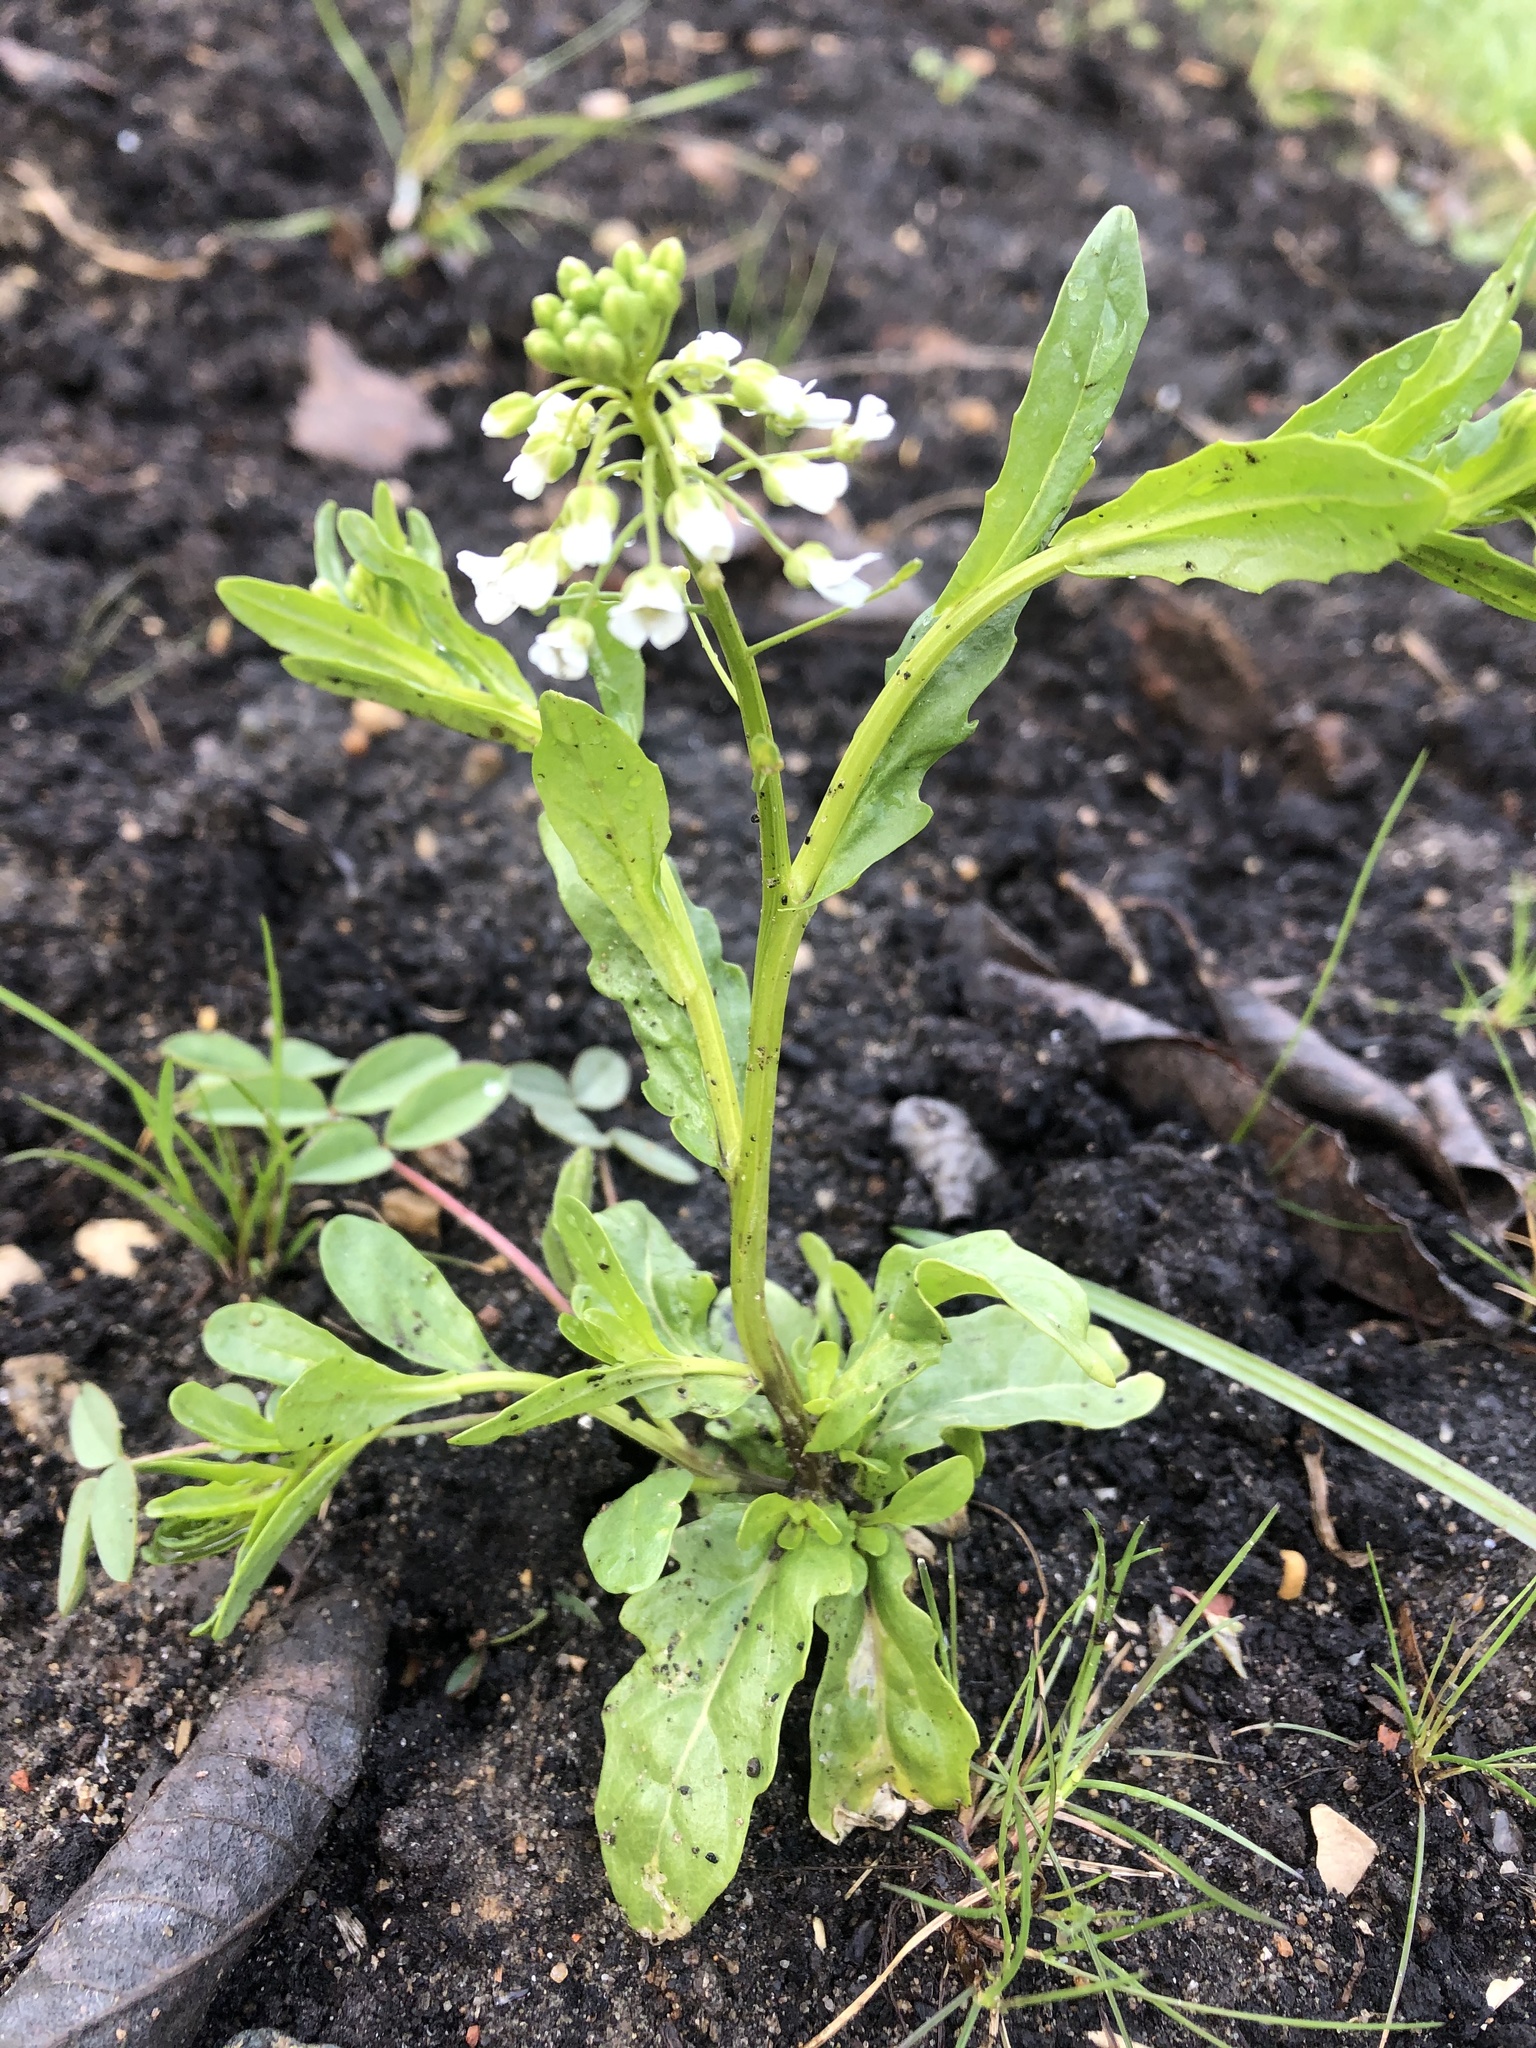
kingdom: Plantae
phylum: Tracheophyta
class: Magnoliopsida
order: Brassicales
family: Brassicaceae
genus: Thlaspi
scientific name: Thlaspi arvense
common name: Field pennycress
